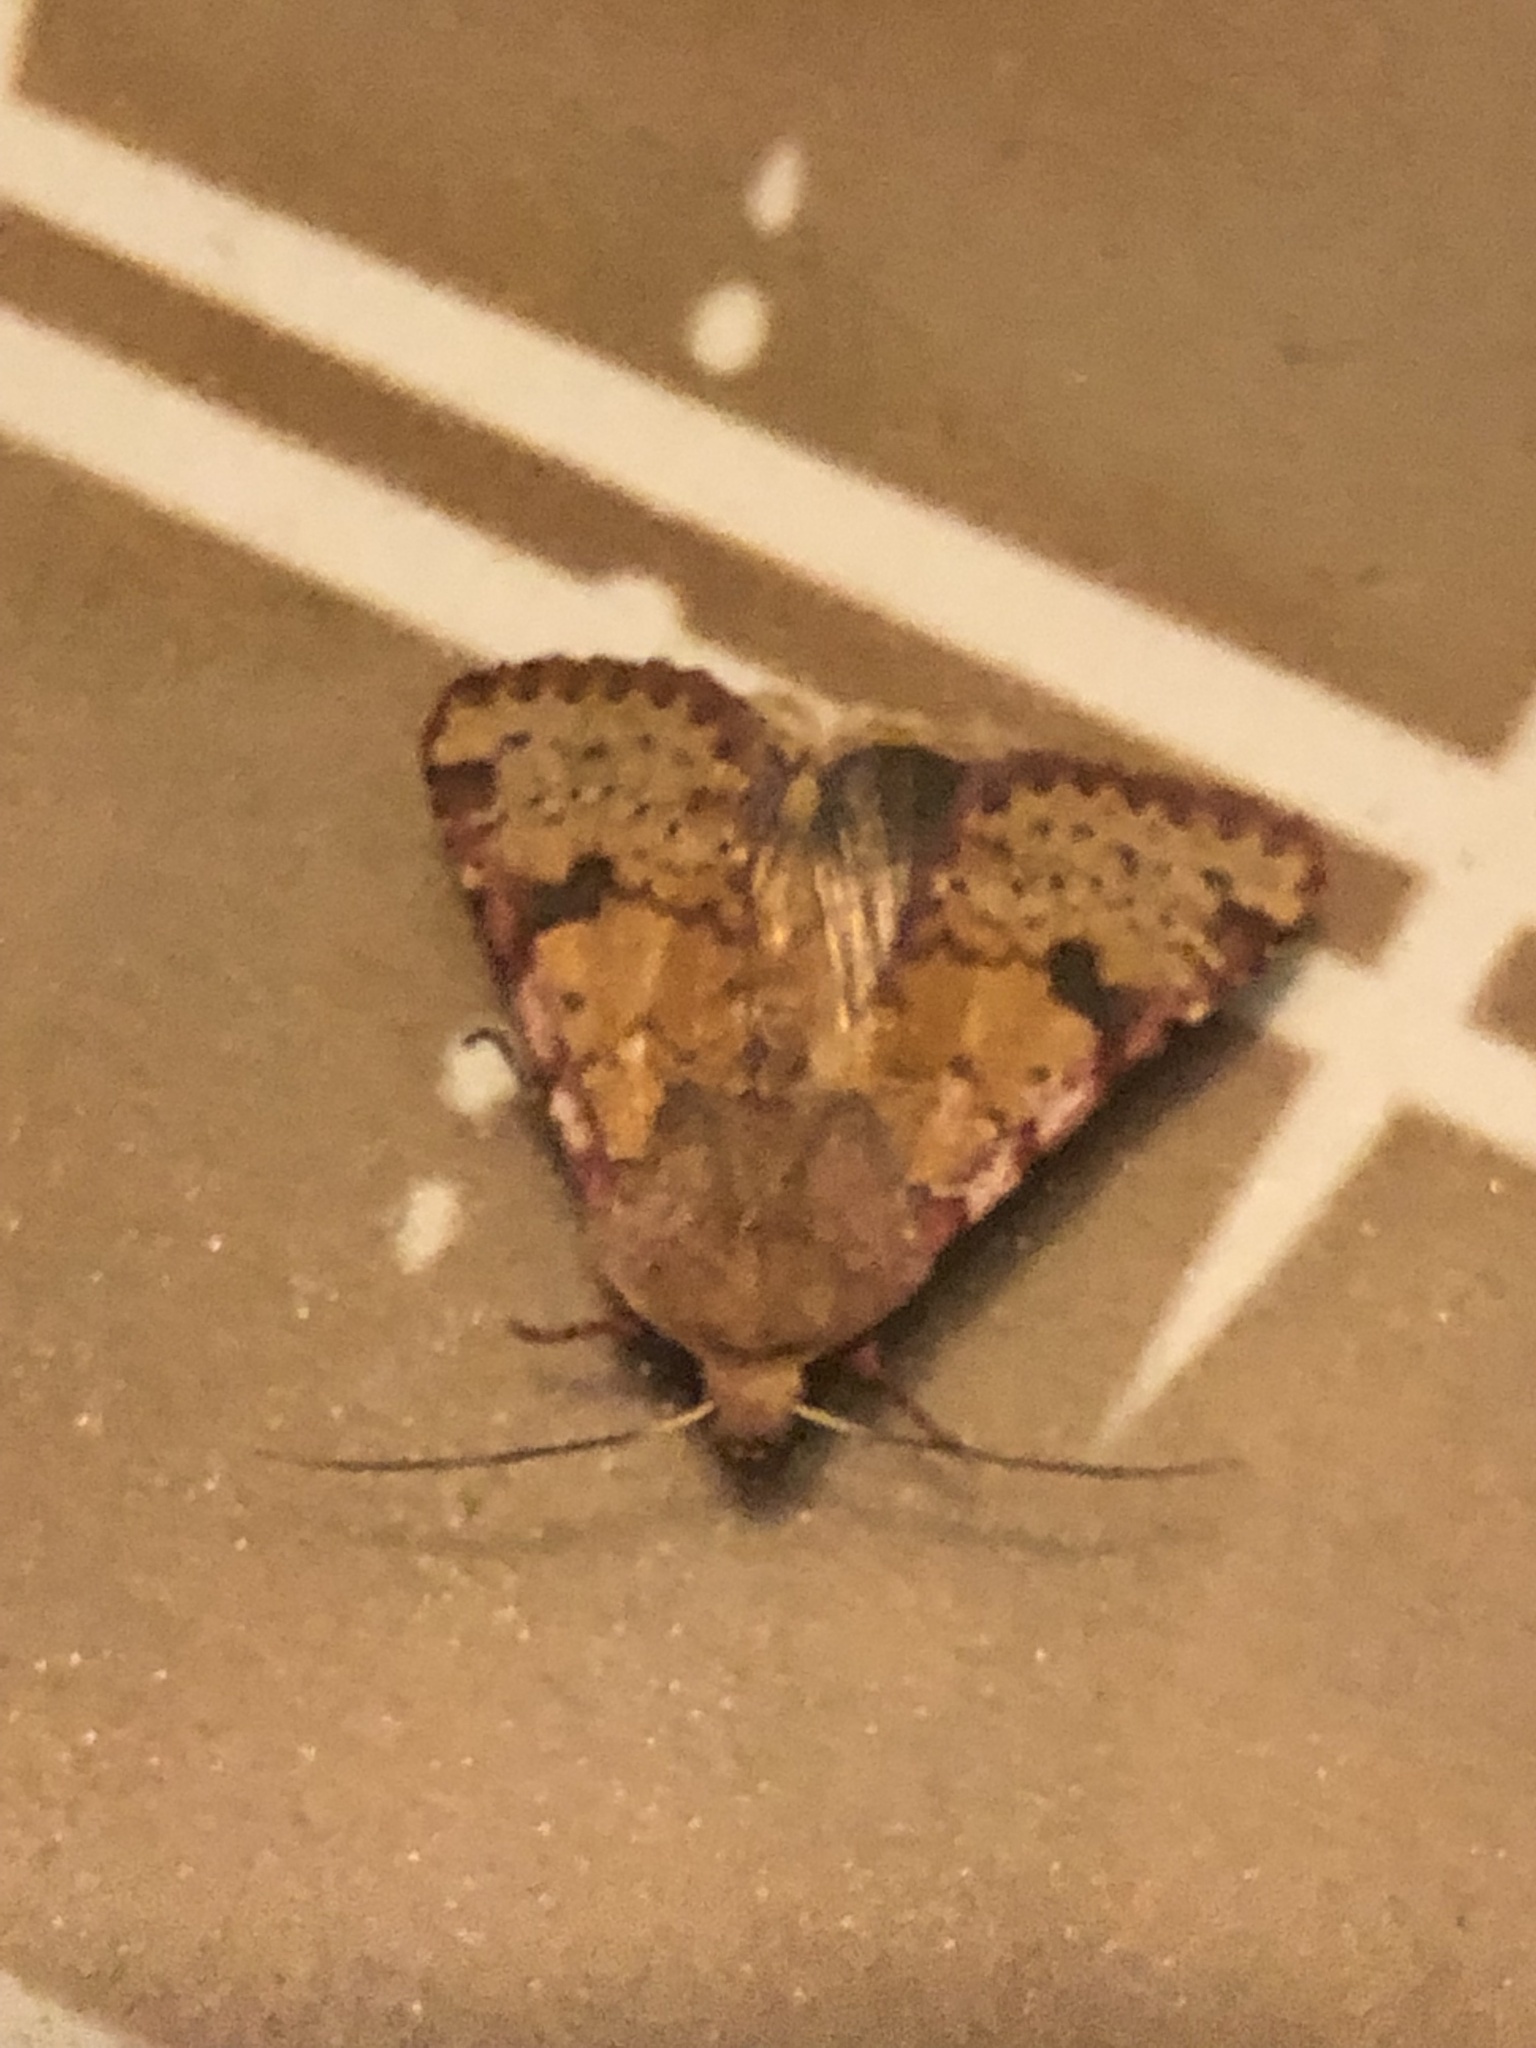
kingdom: Animalia
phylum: Arthropoda
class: Insecta
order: Lepidoptera
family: Noctuidae
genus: Schinia
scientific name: Schinia chilensis
